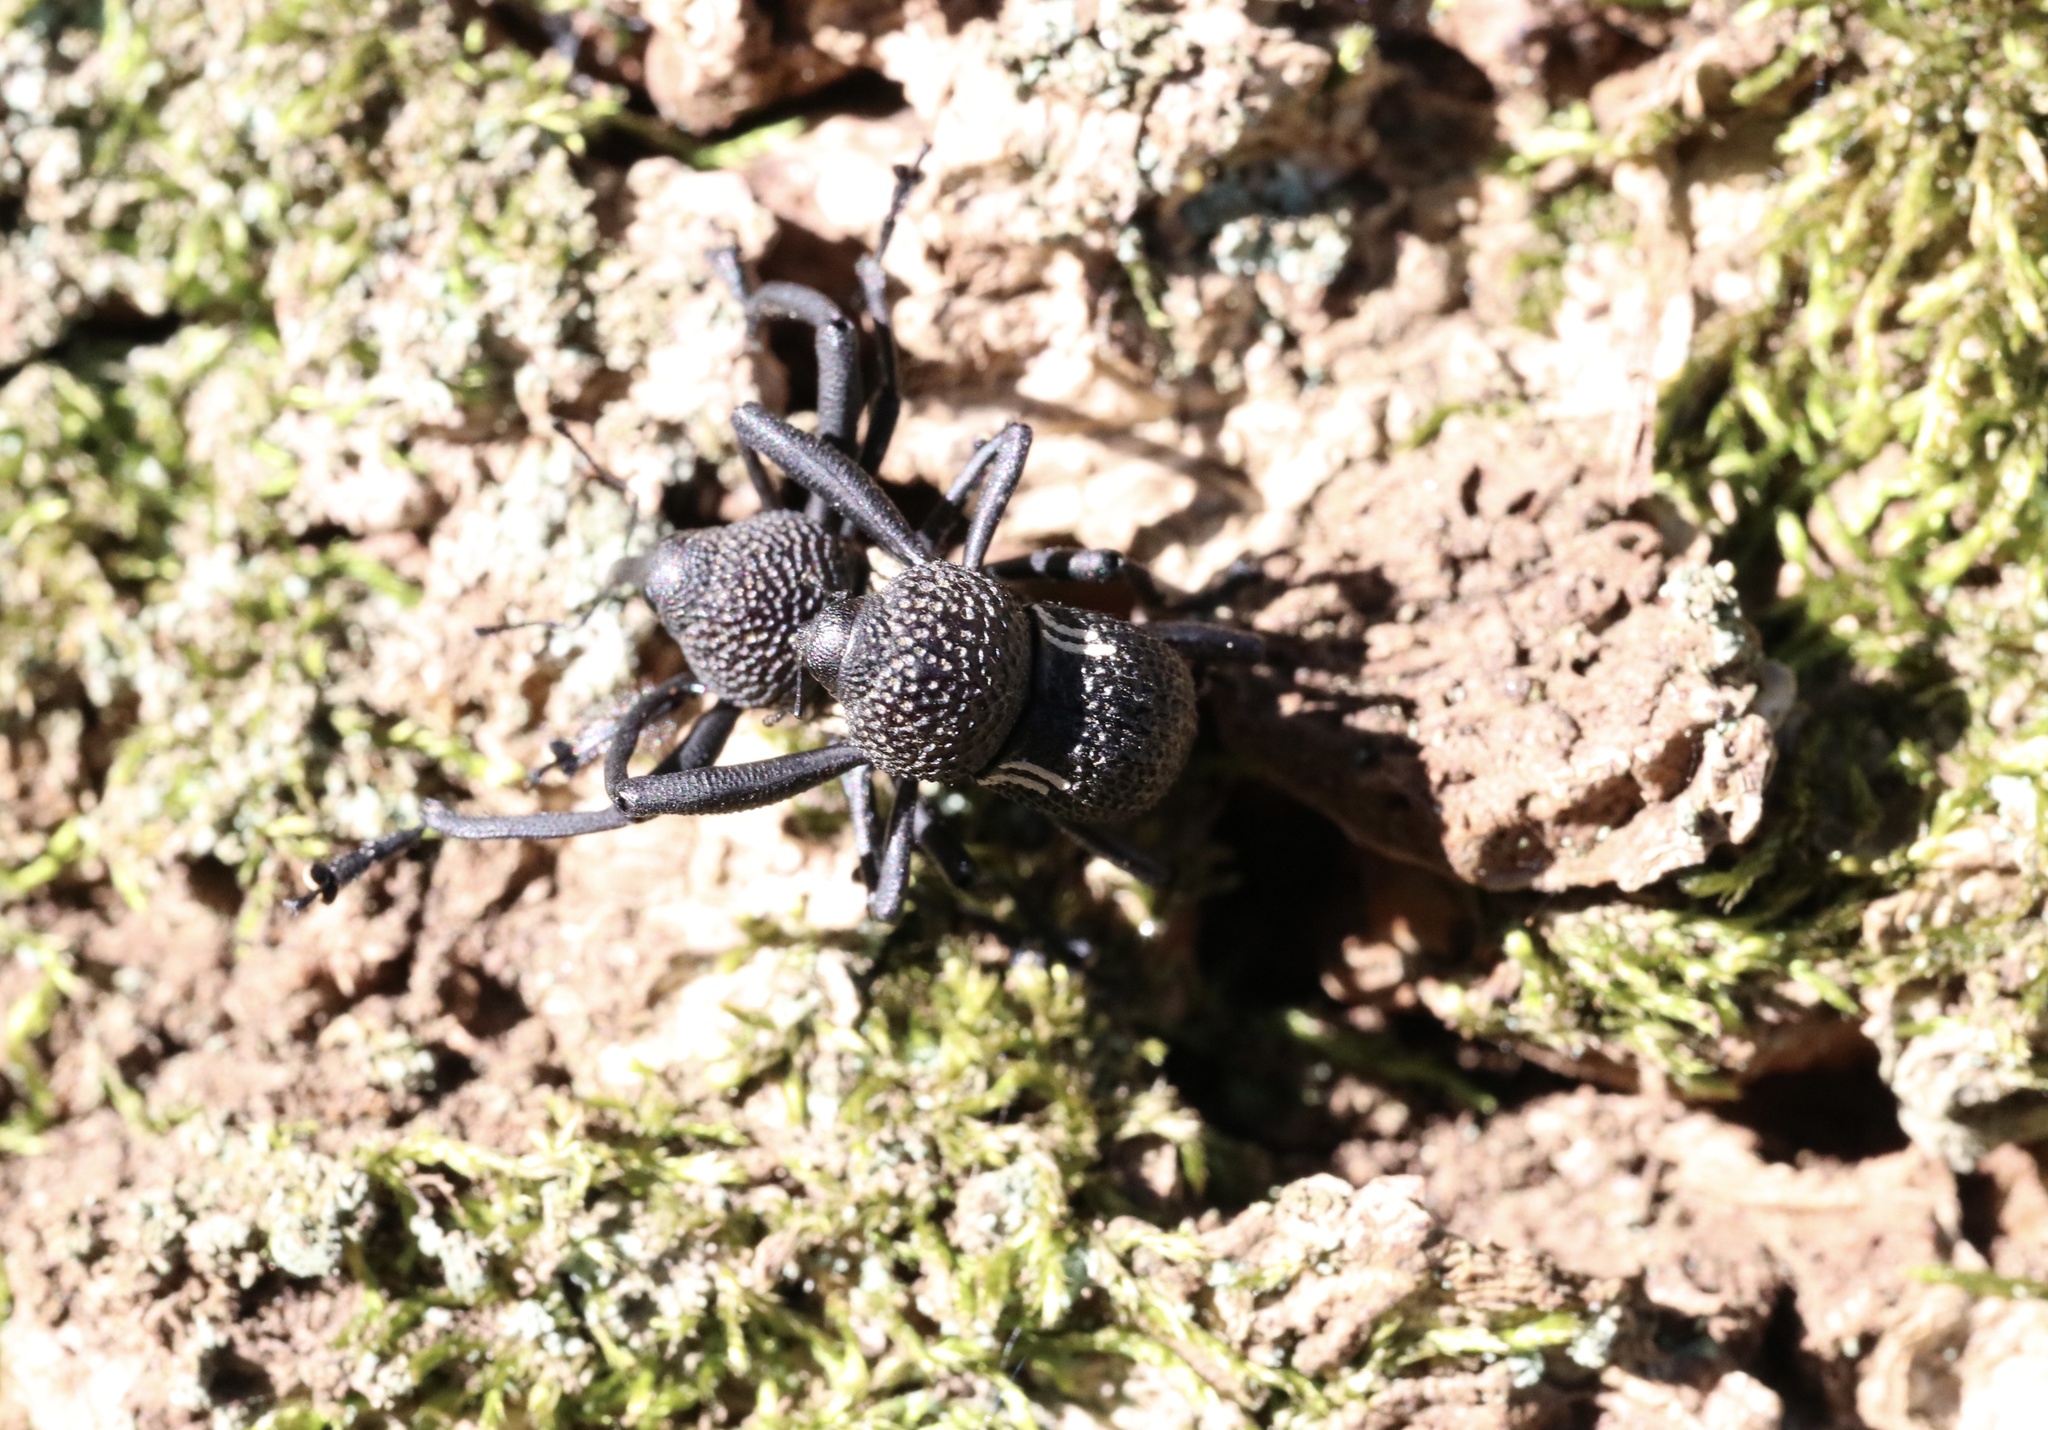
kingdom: Animalia
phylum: Arthropoda
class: Insecta
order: Coleoptera
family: Curculionidae
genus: Rhyephenes
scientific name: Rhyephenes humeralis
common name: Araè±ita chilena del pino
